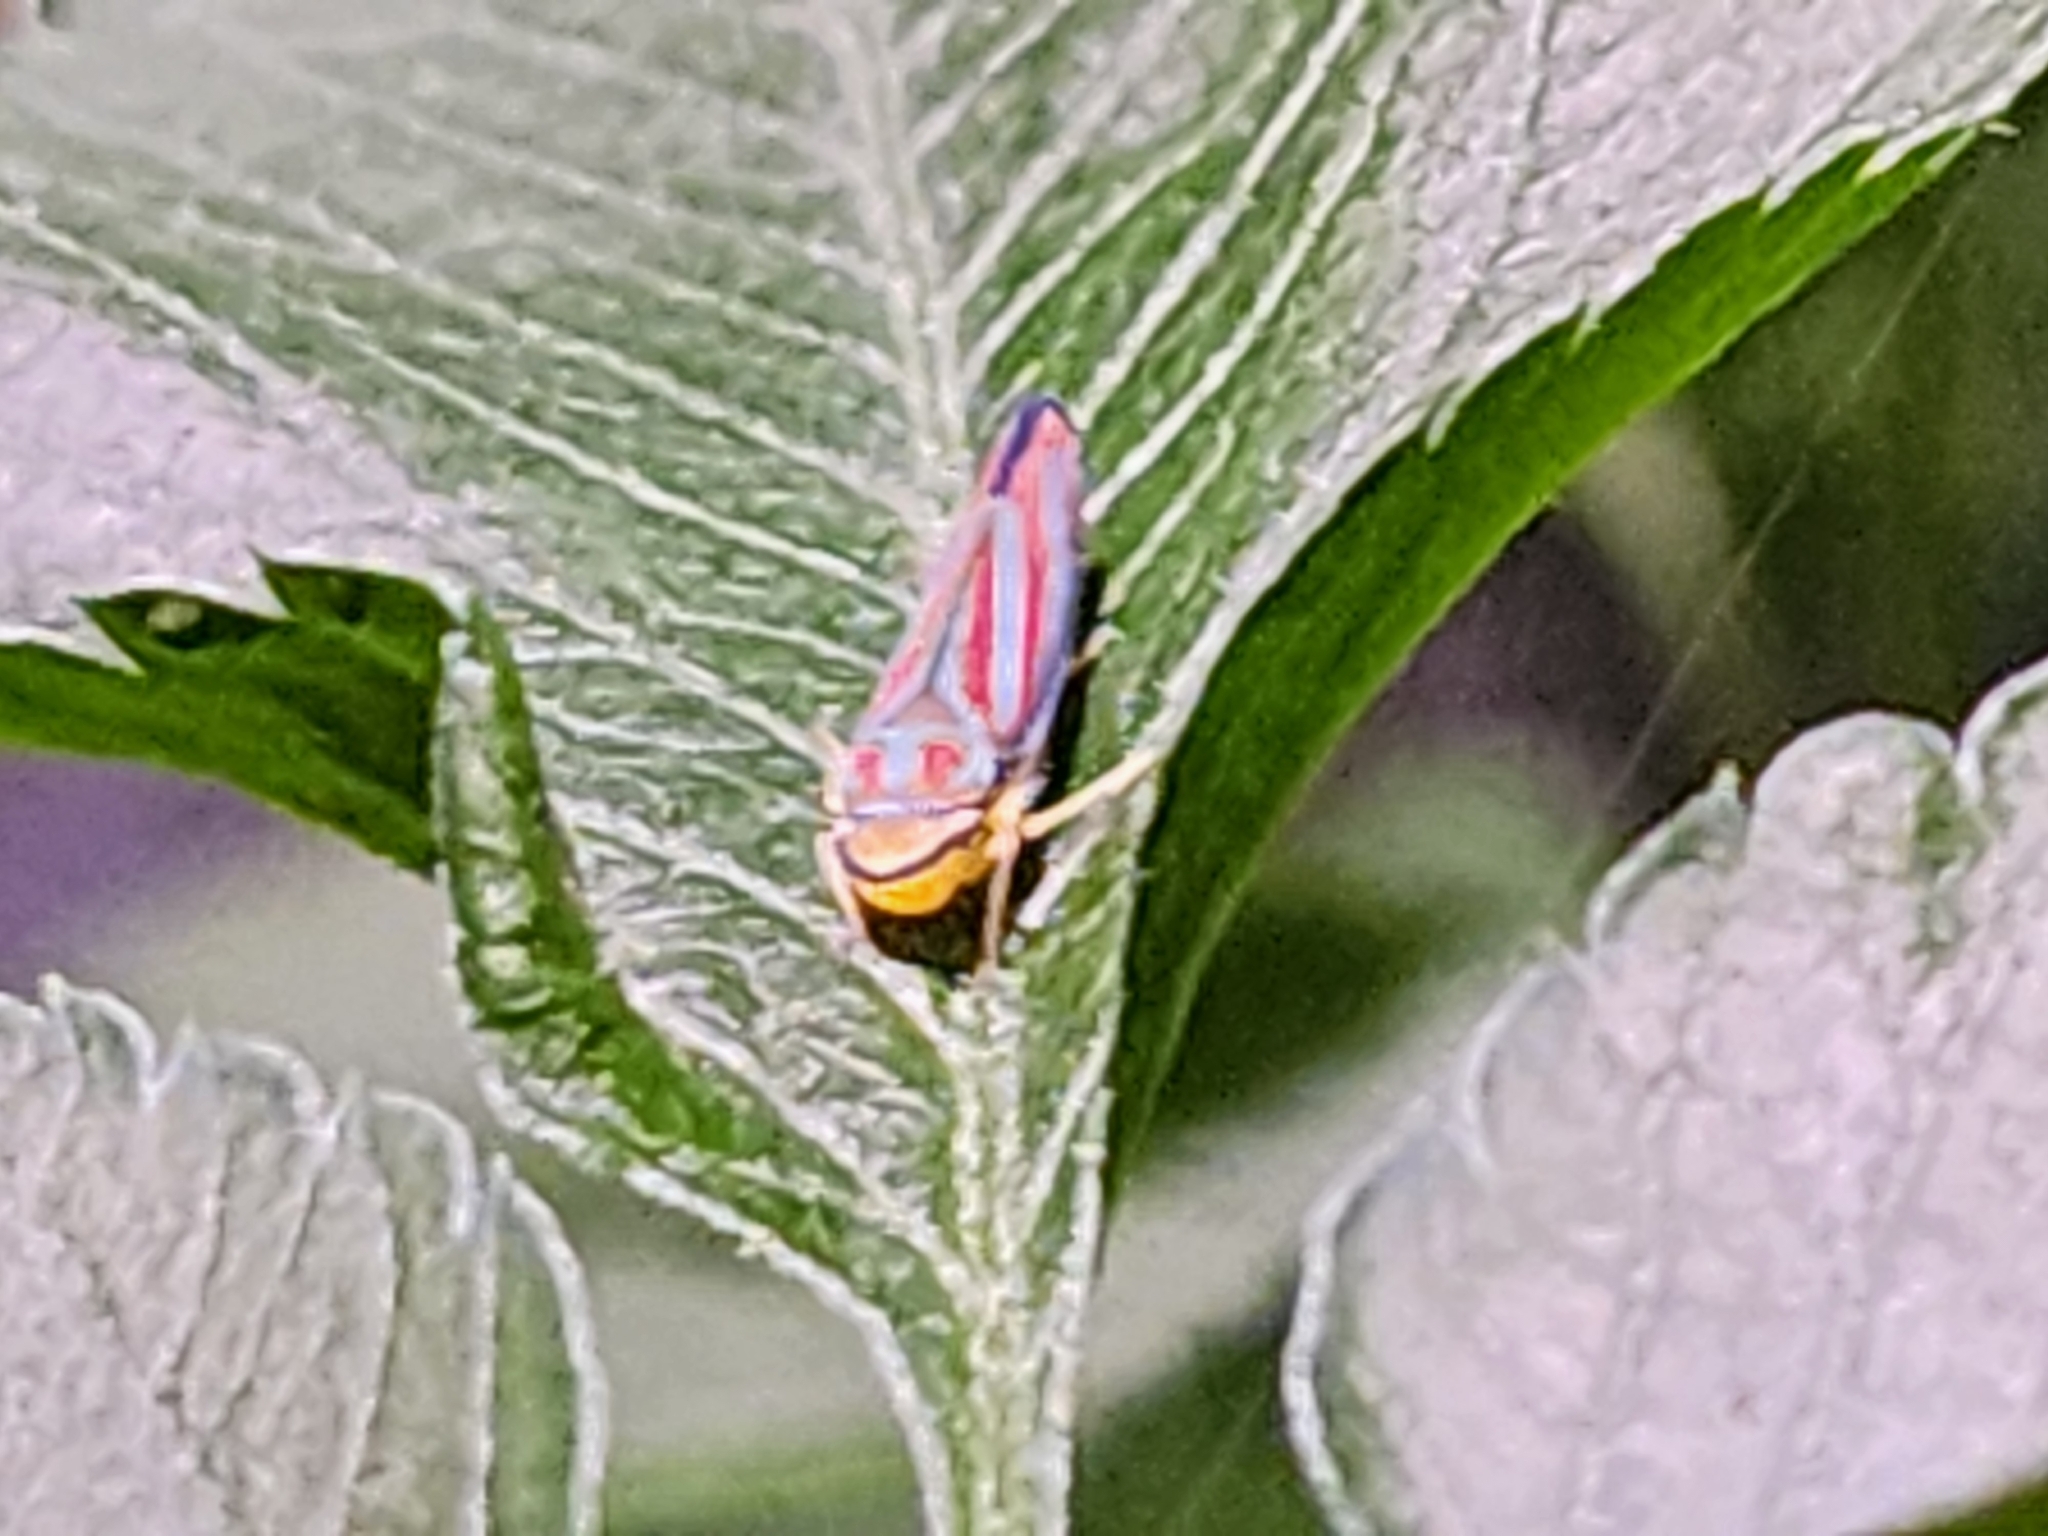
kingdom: Animalia
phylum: Arthropoda
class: Insecta
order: Hemiptera
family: Cicadellidae
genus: Graphocephala
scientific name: Graphocephala coccinea
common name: Candy-striped leafhopper
